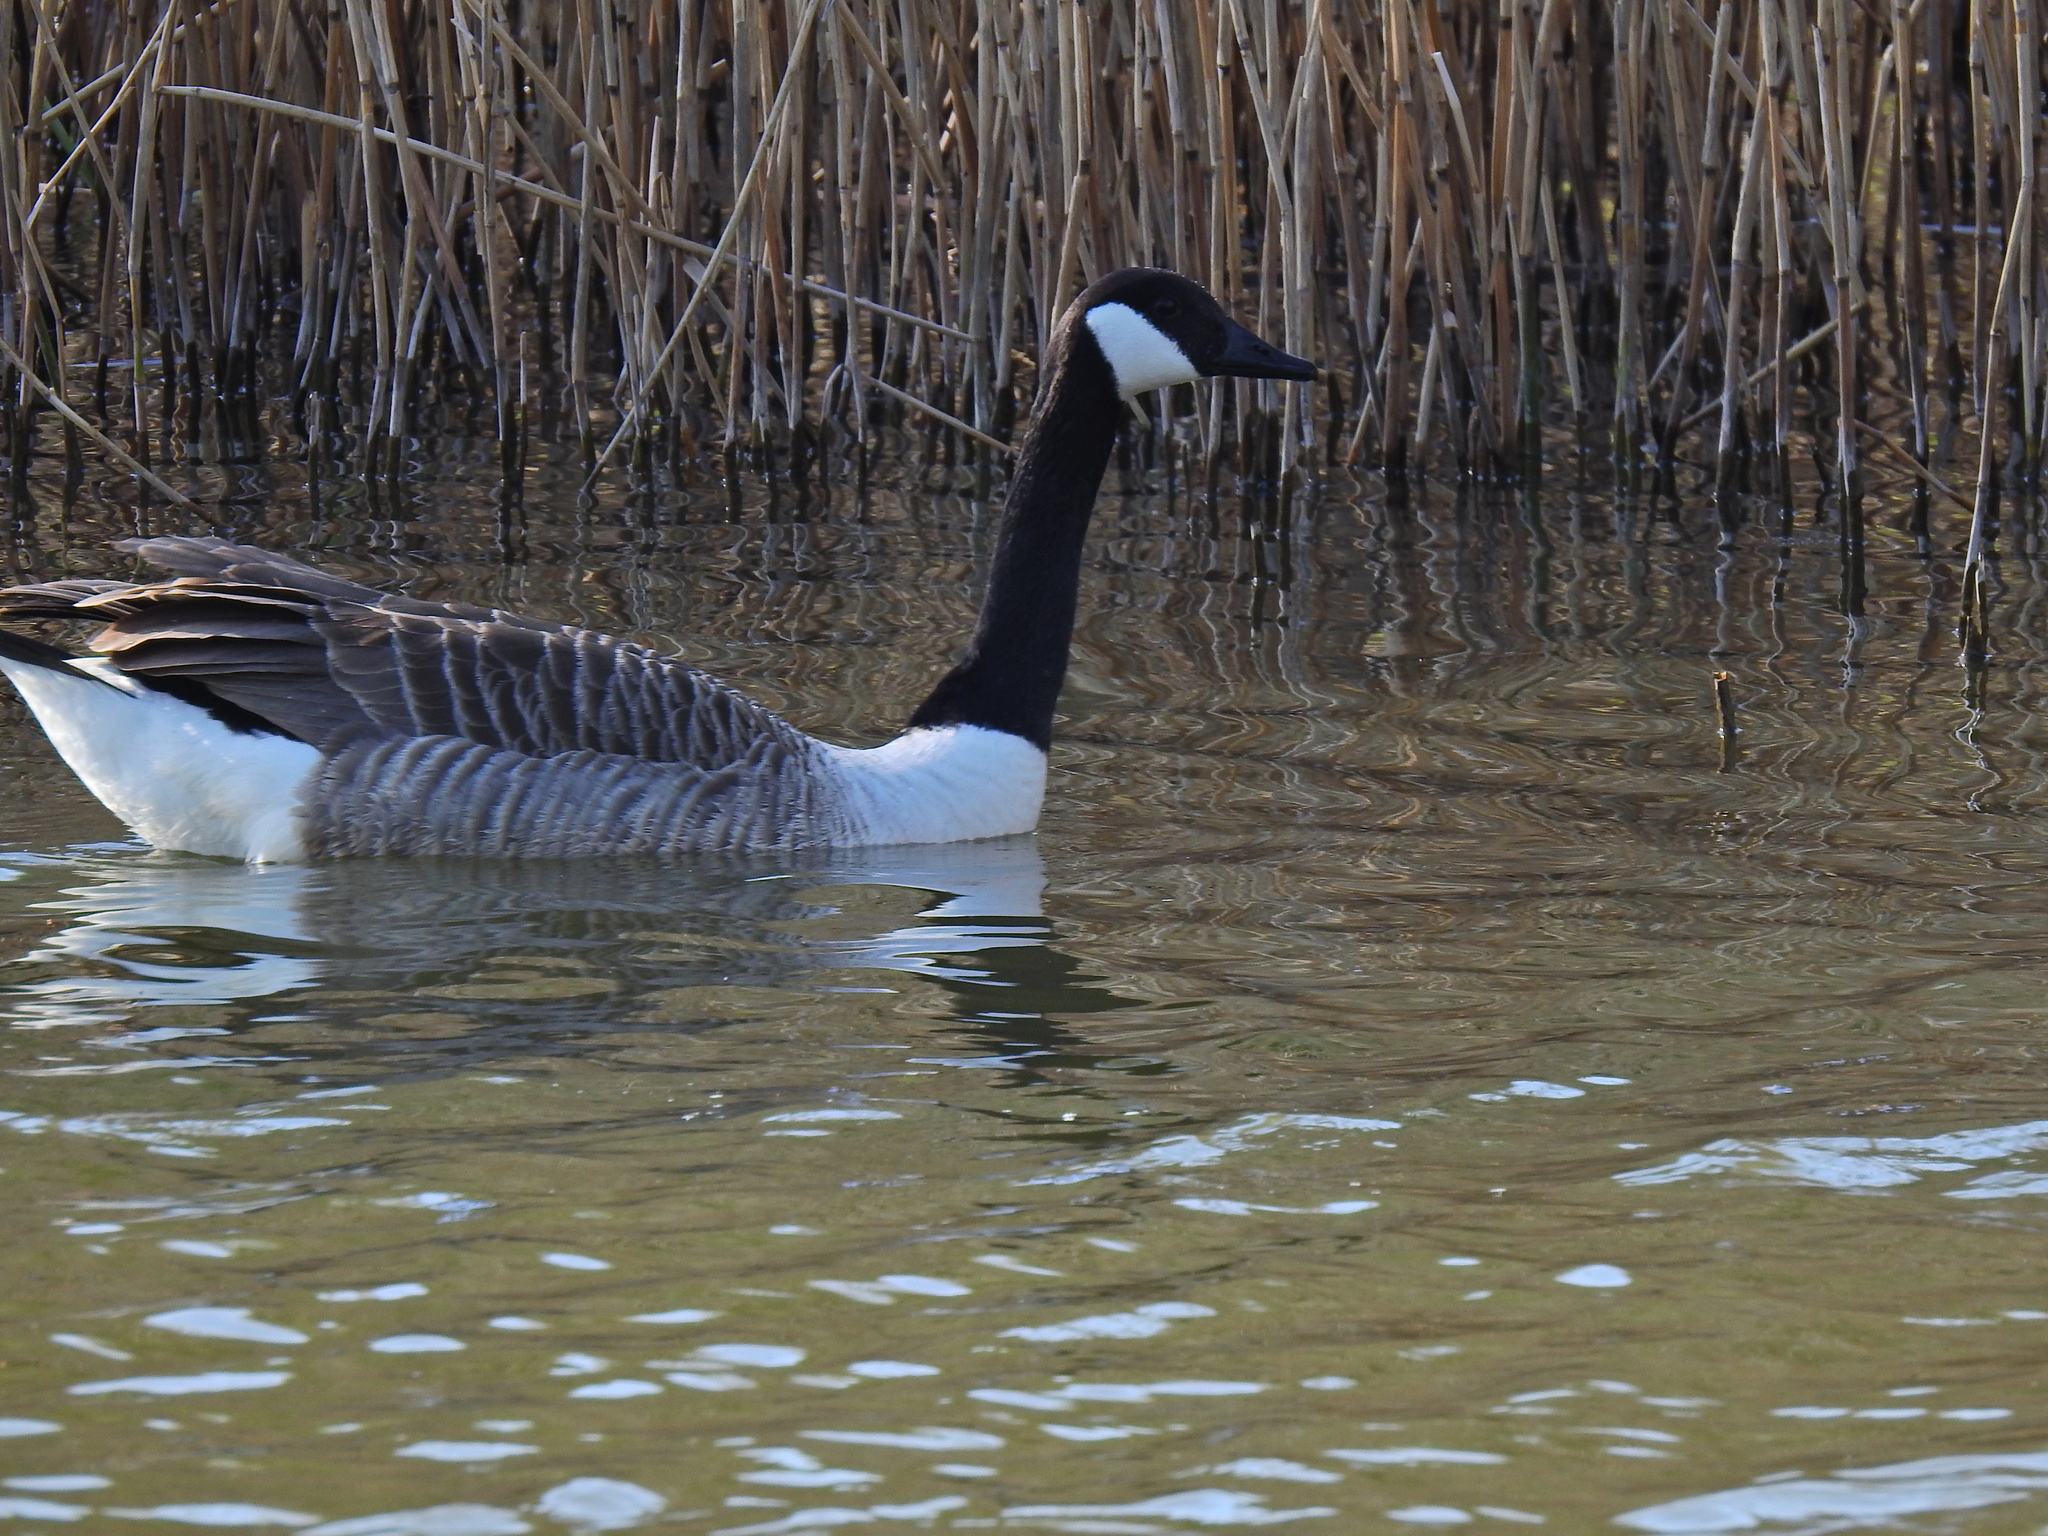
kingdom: Animalia
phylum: Chordata
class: Aves
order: Anseriformes
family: Anatidae
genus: Branta
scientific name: Branta canadensis
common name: Canada goose
